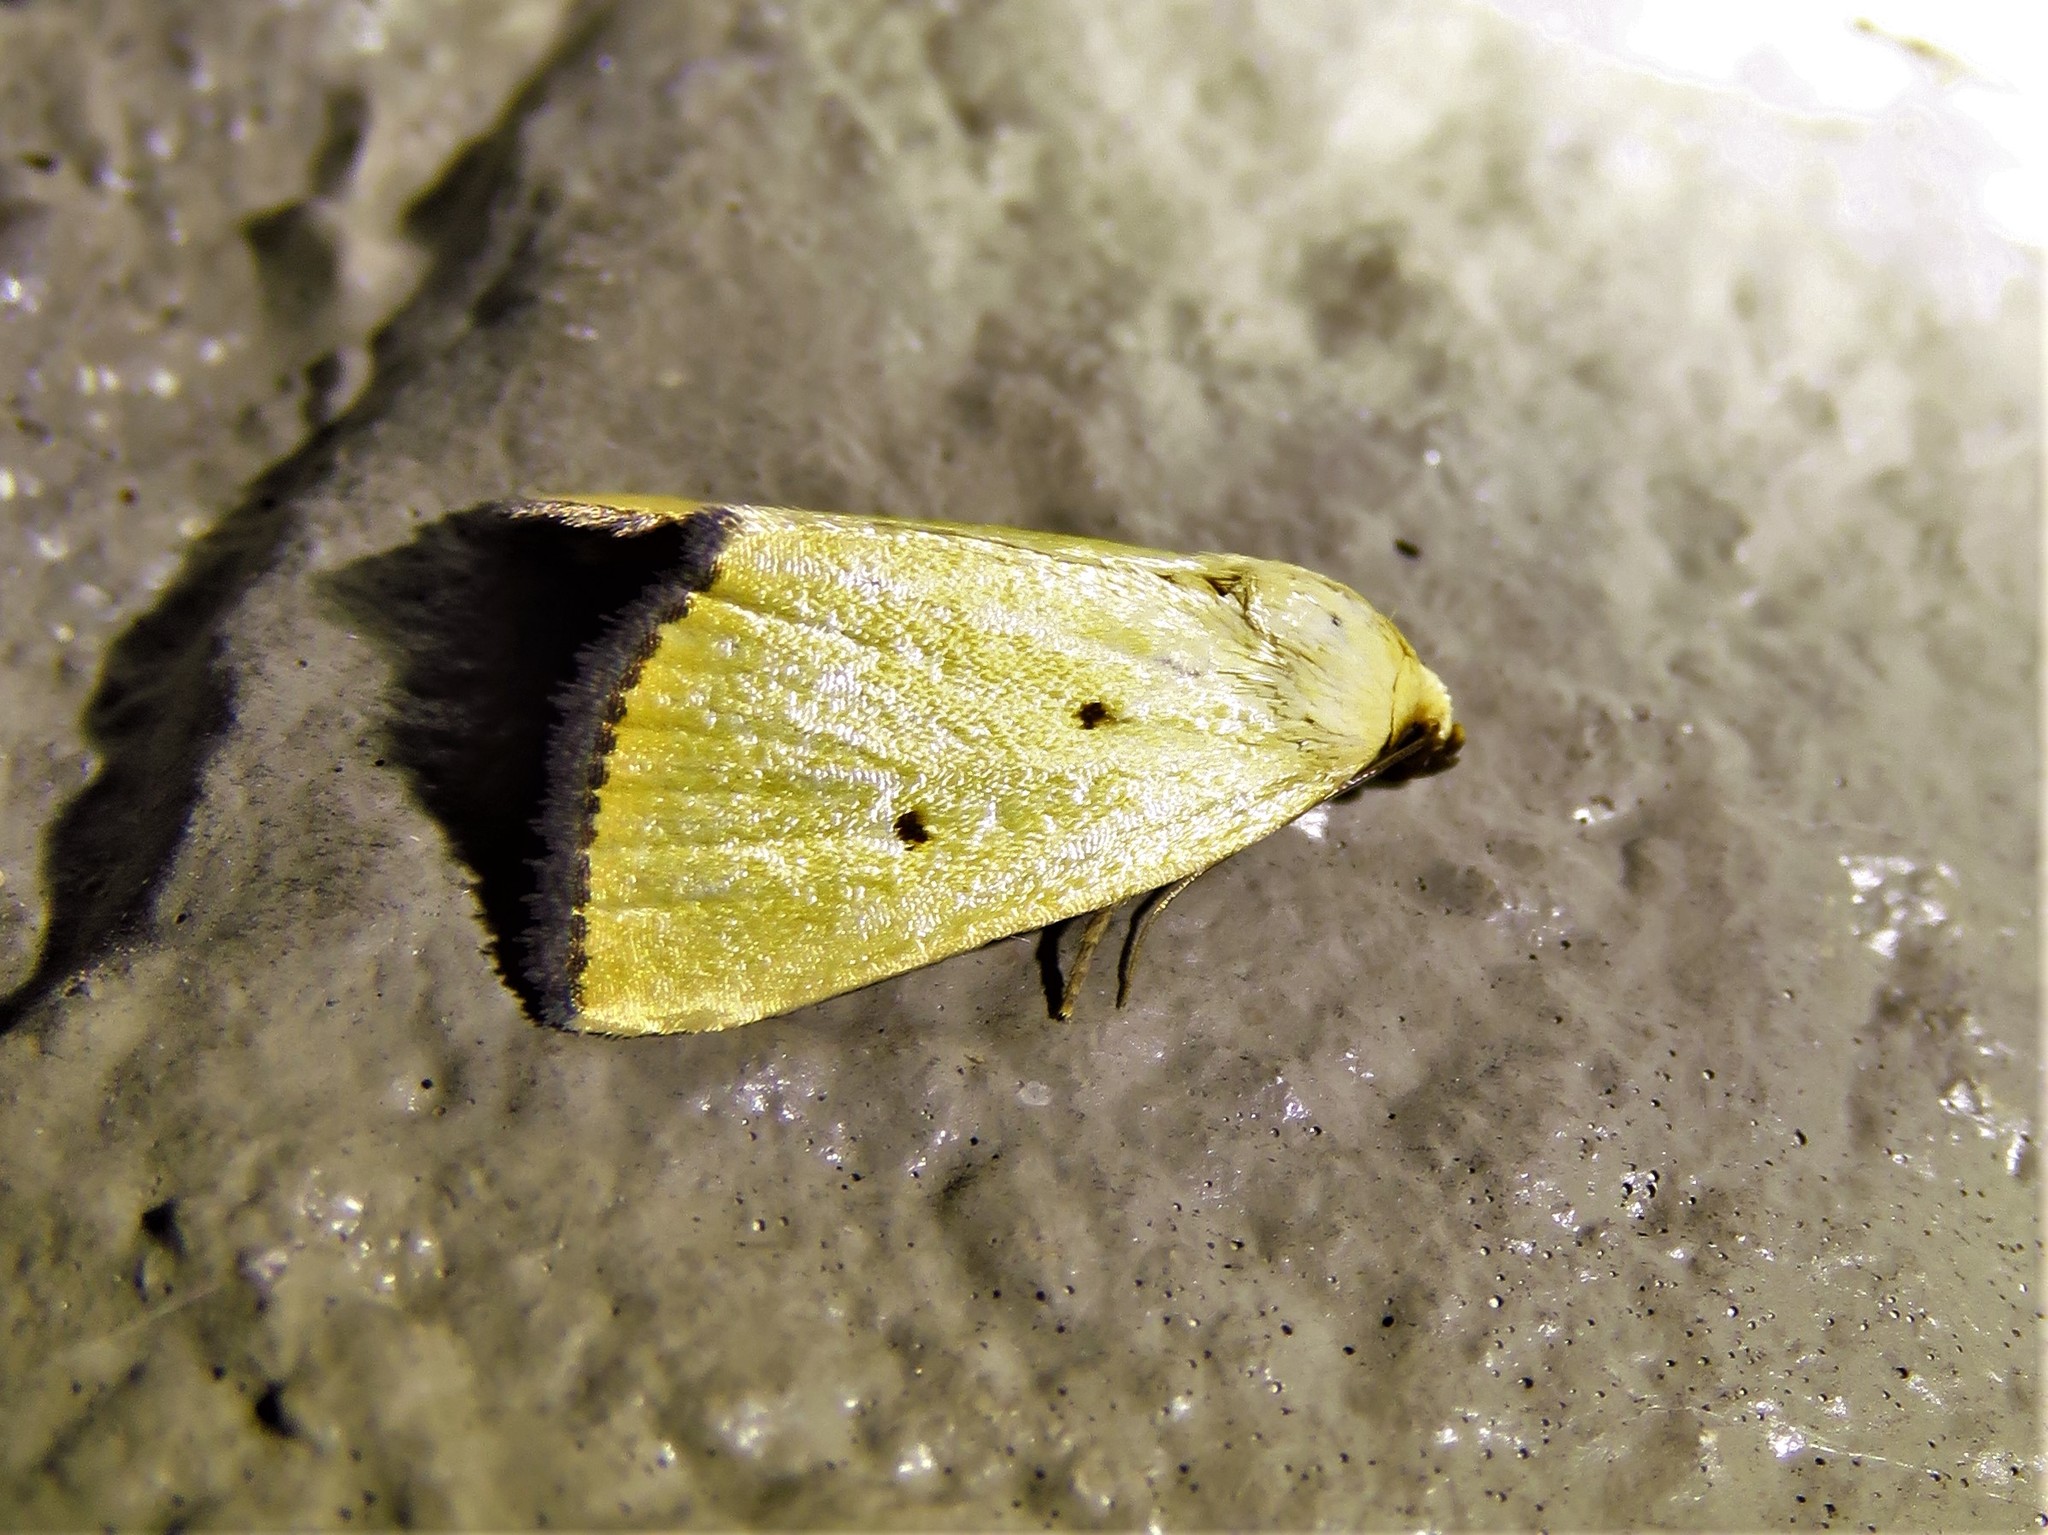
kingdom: Animalia
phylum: Arthropoda
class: Insecta
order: Lepidoptera
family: Noctuidae
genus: Marimatha
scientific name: Marimatha nigrofimbria
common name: Black-bordered lemon moth
